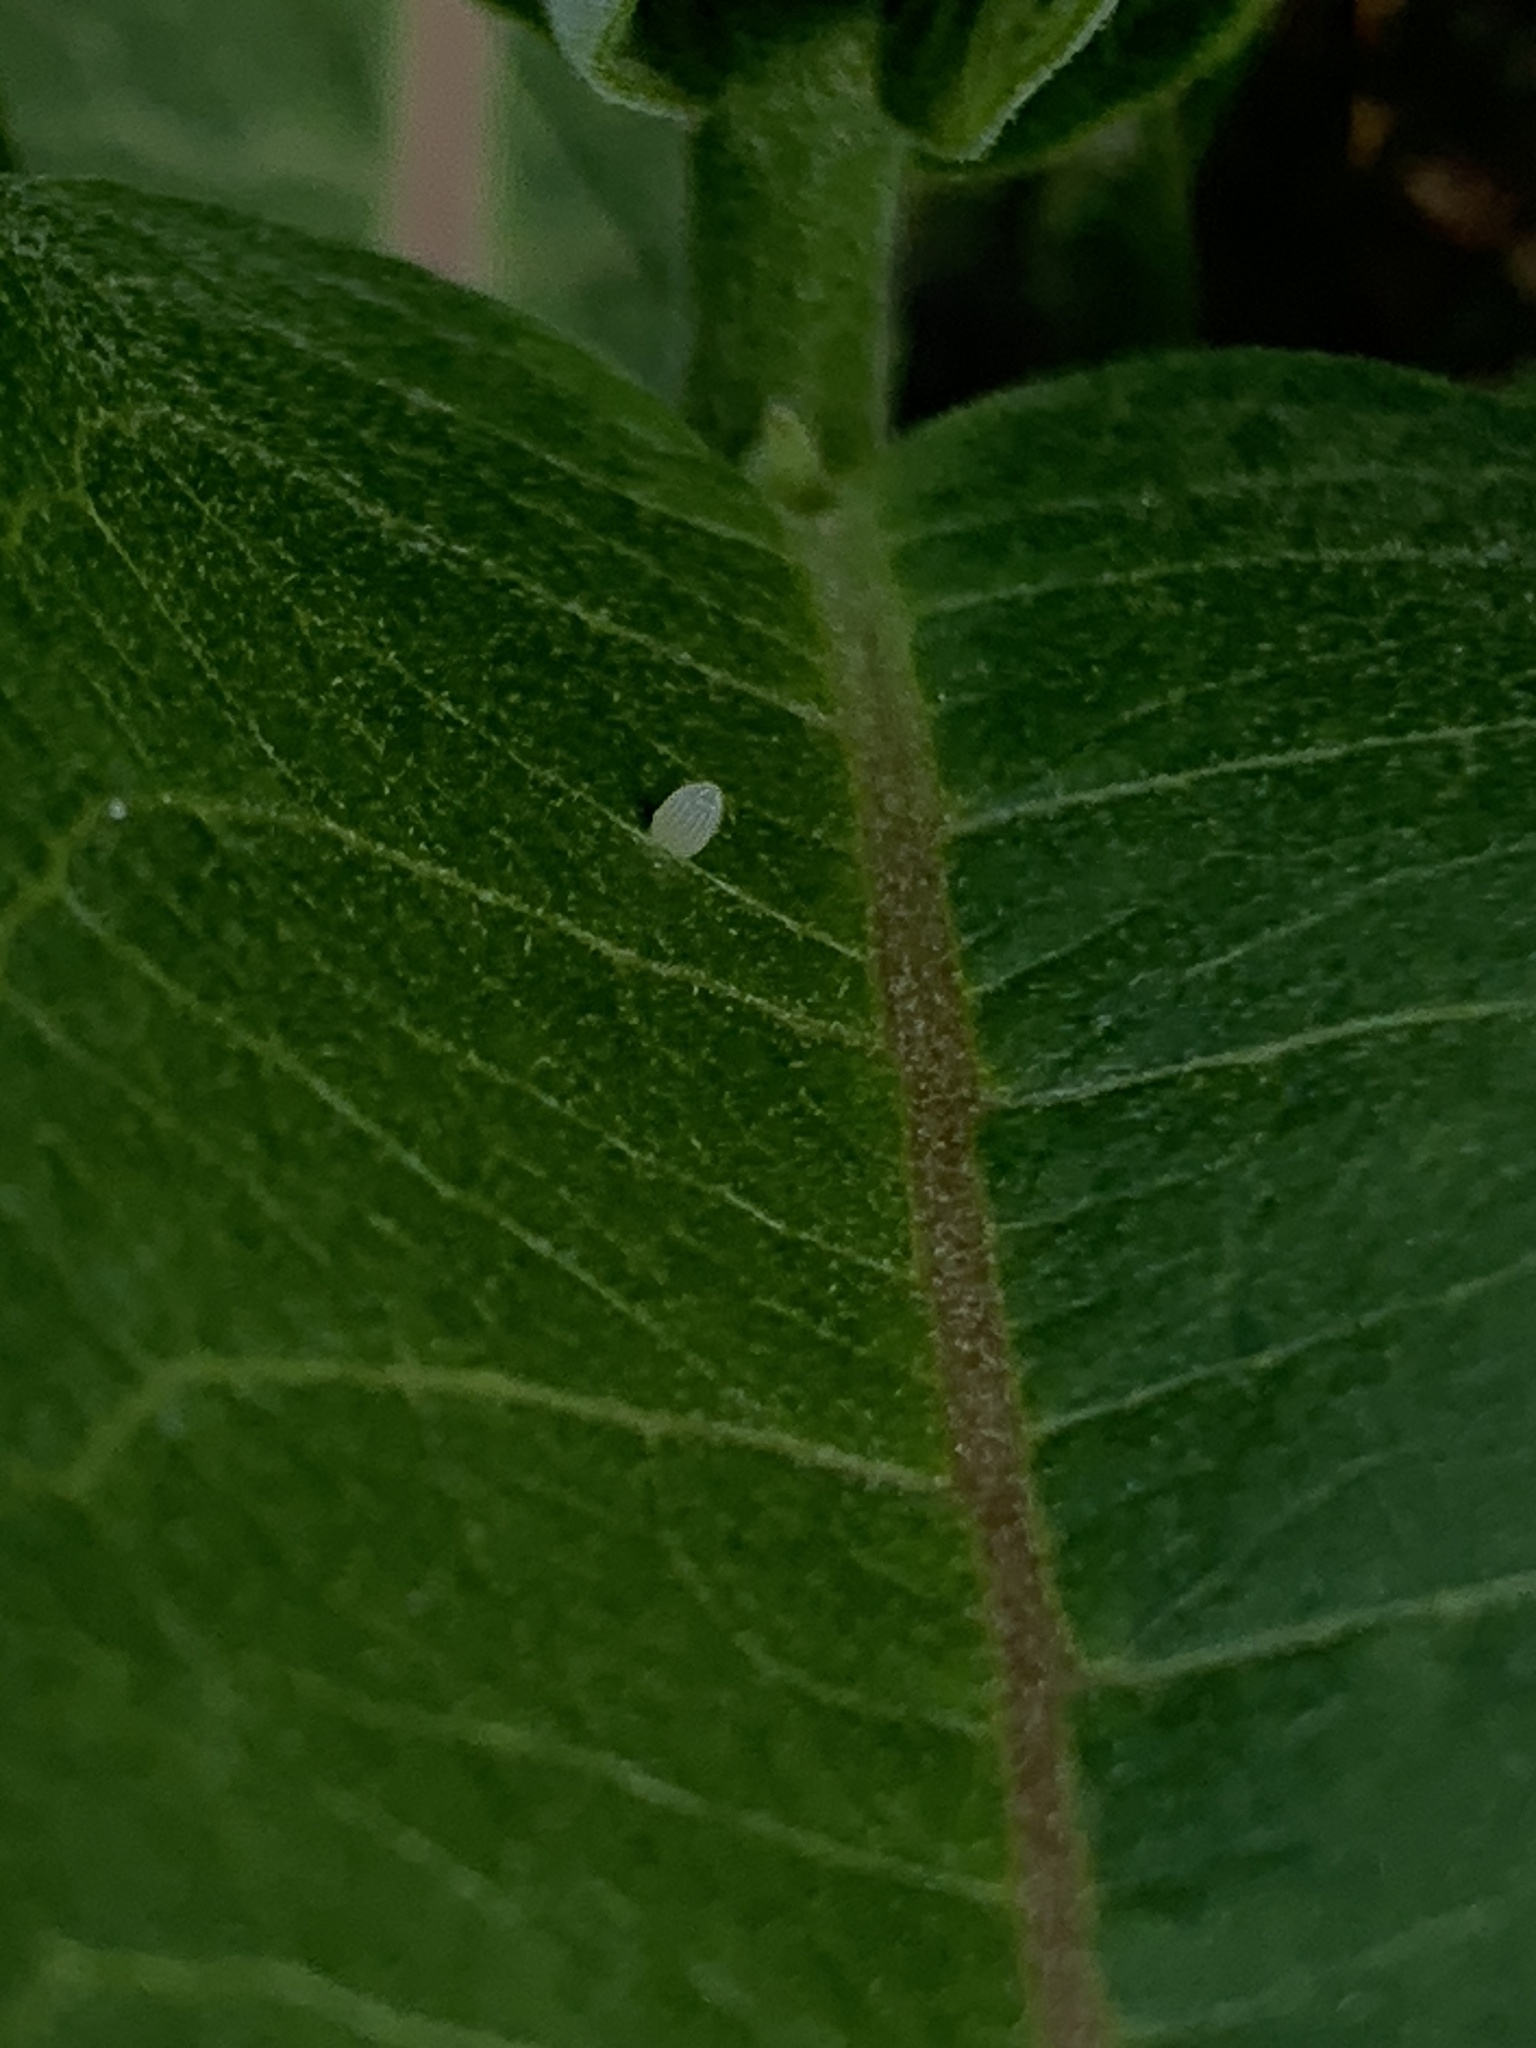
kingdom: Animalia
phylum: Arthropoda
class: Insecta
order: Lepidoptera
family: Nymphalidae
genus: Danaus
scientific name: Danaus plexippus
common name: Monarch
